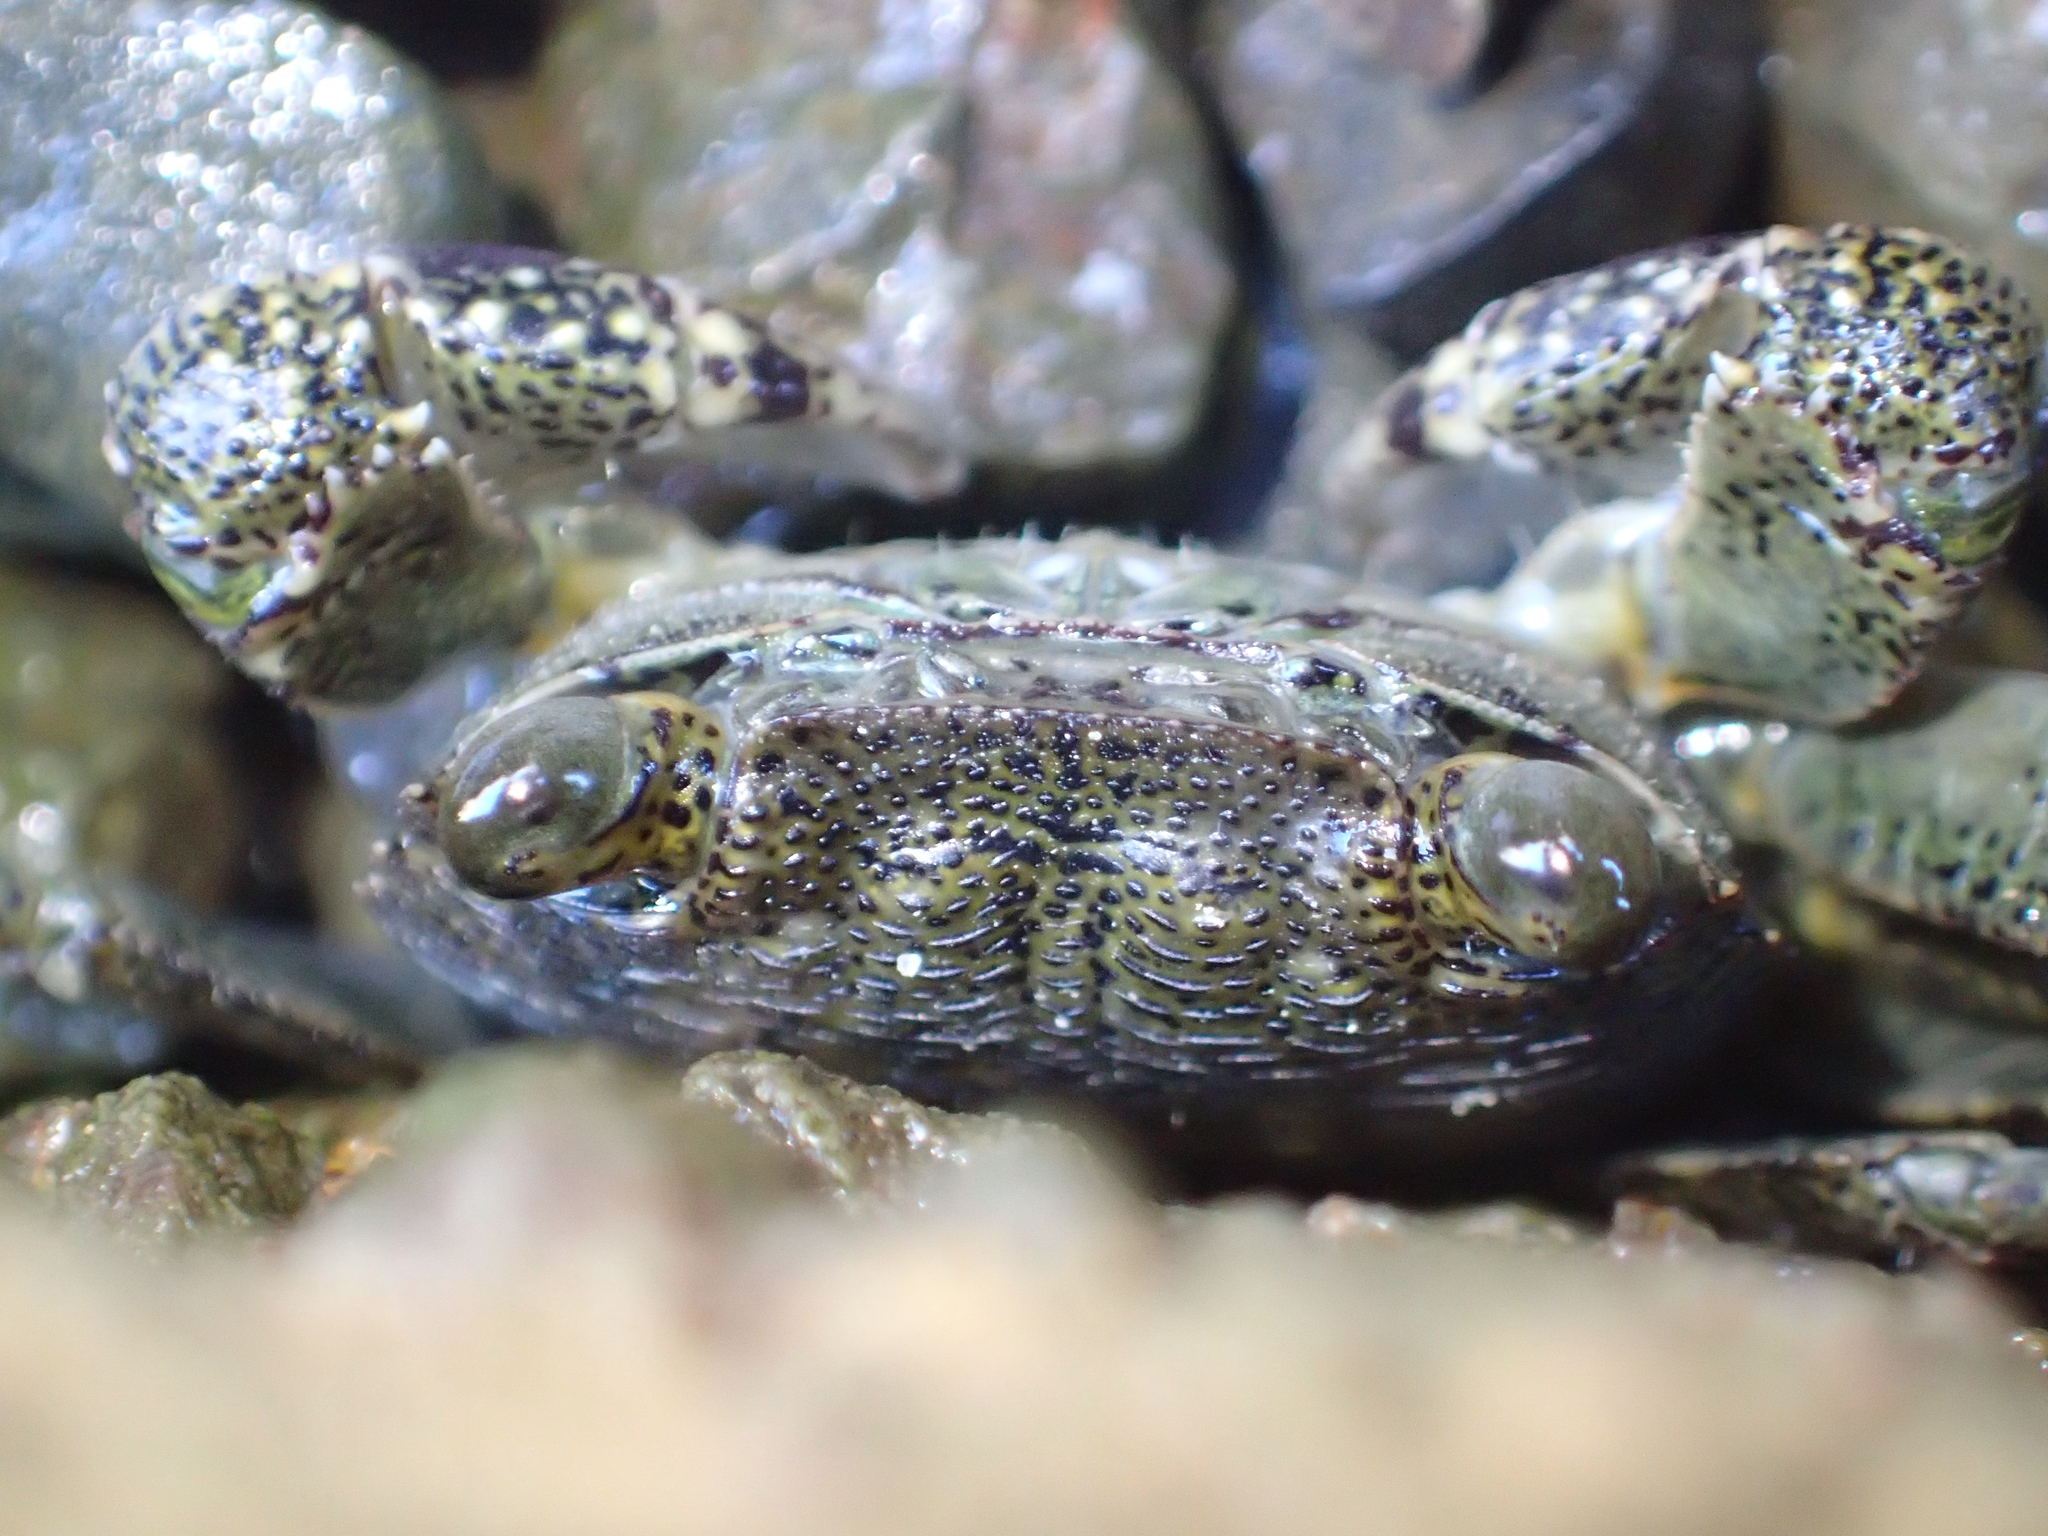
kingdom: Animalia
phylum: Arthropoda
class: Malacostraca
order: Decapoda
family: Grapsidae
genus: Leptograpsus
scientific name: Leptograpsus variegatus
